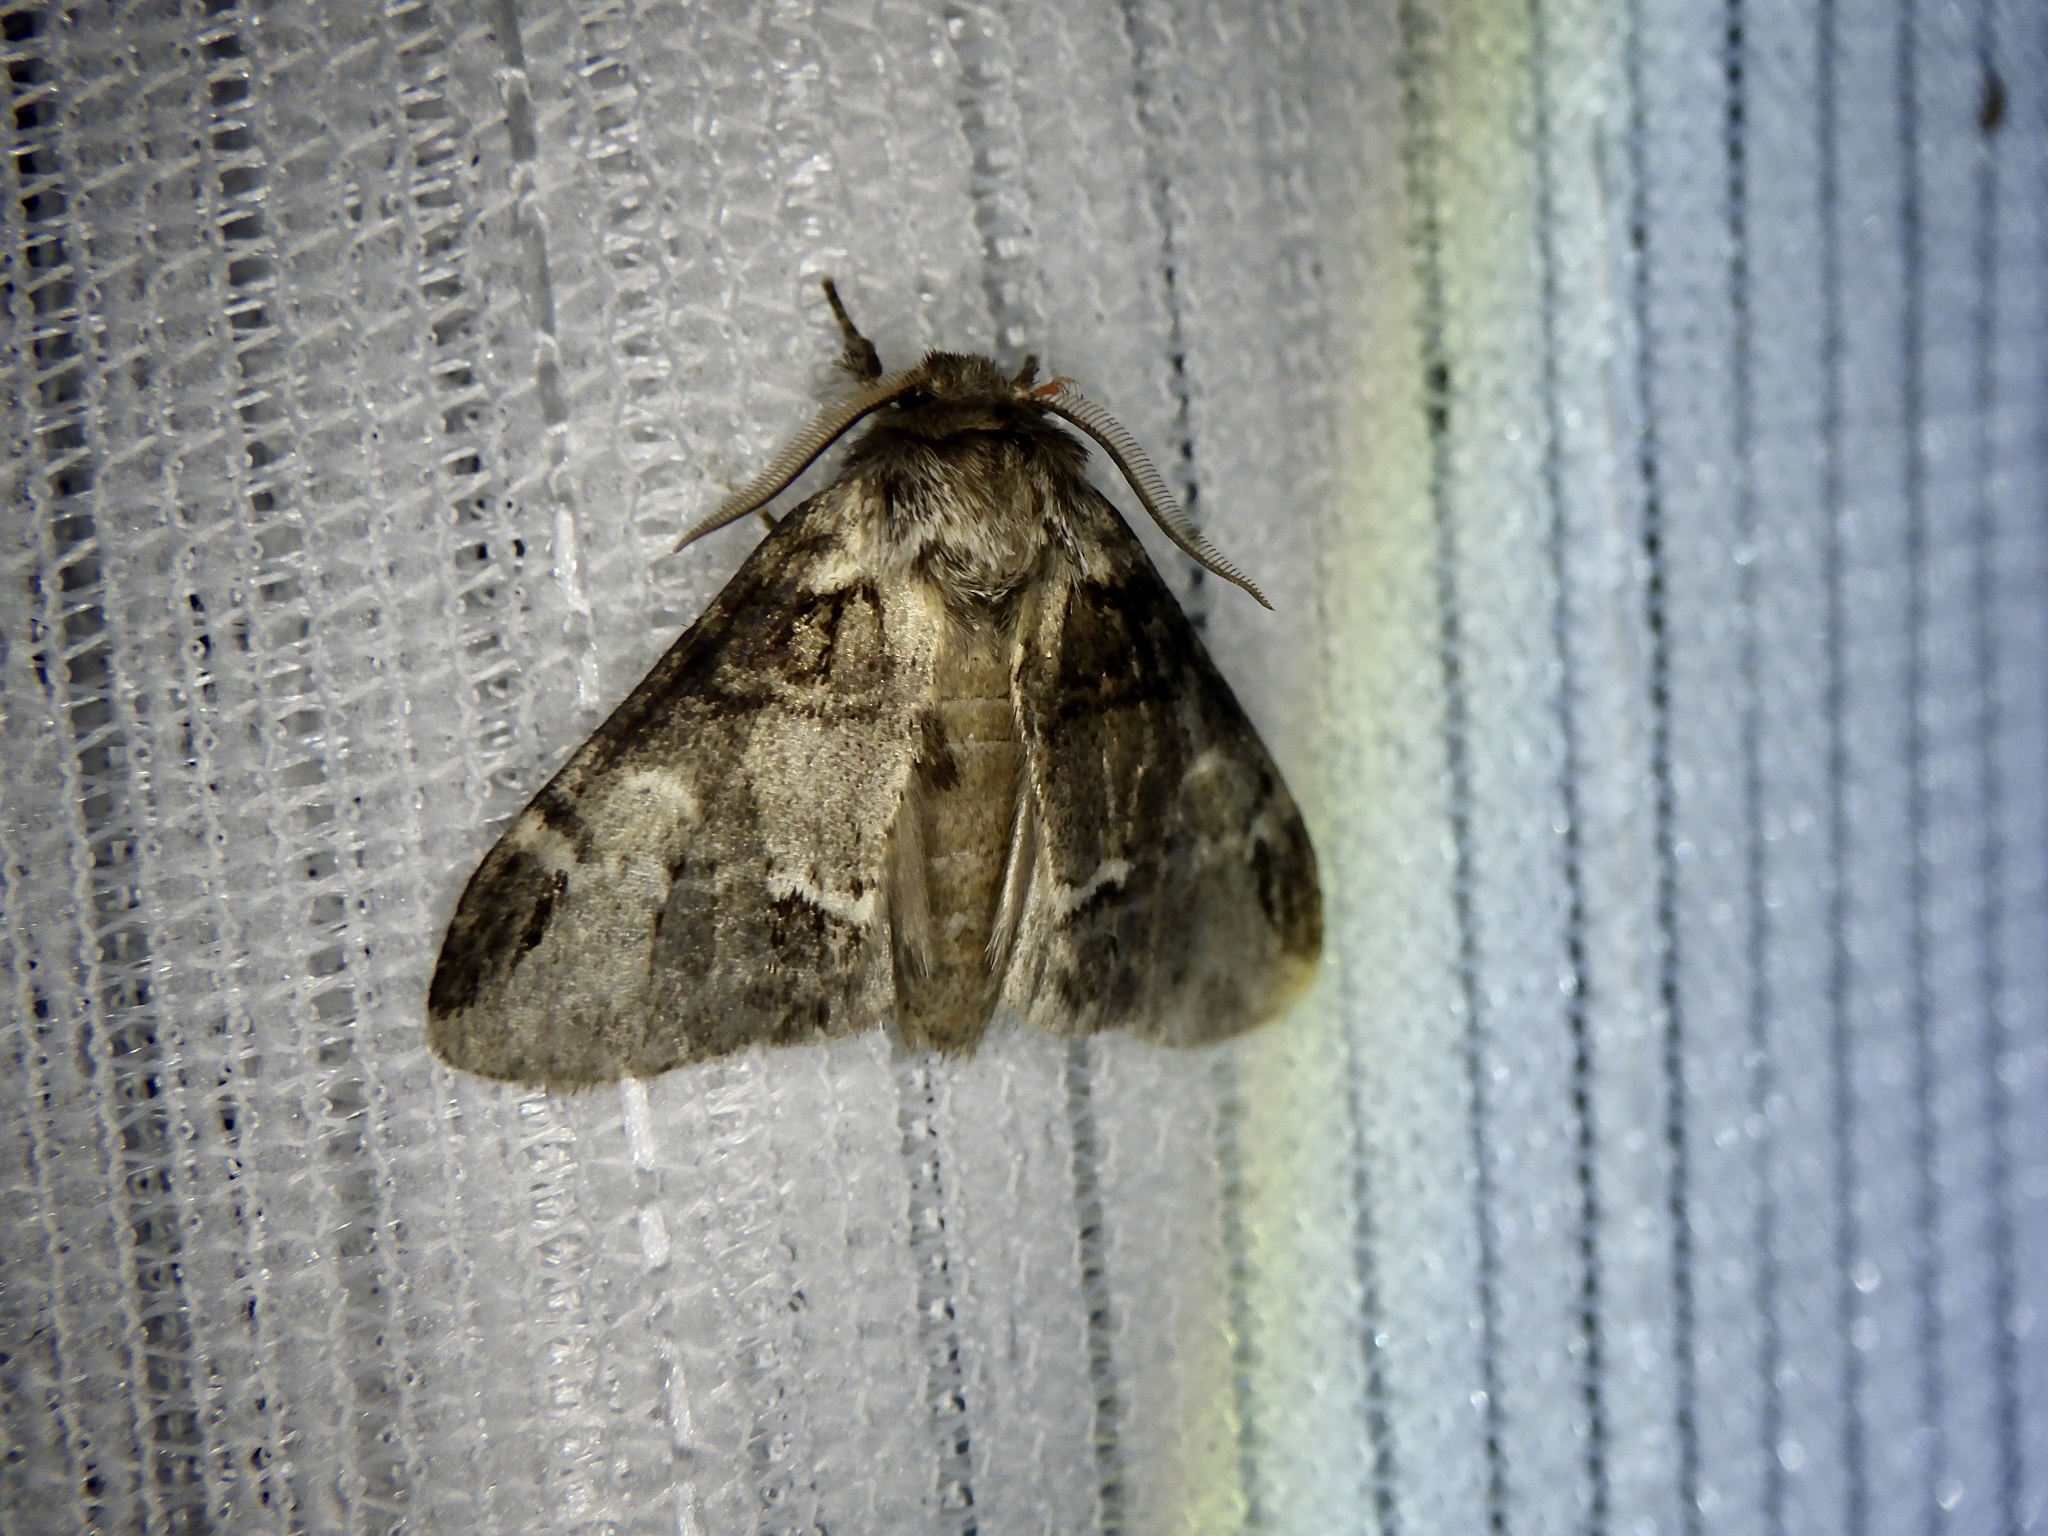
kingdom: Animalia
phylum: Arthropoda
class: Insecta
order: Lepidoptera
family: Notodontidae
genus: Drymonia
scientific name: Drymonia japonica
